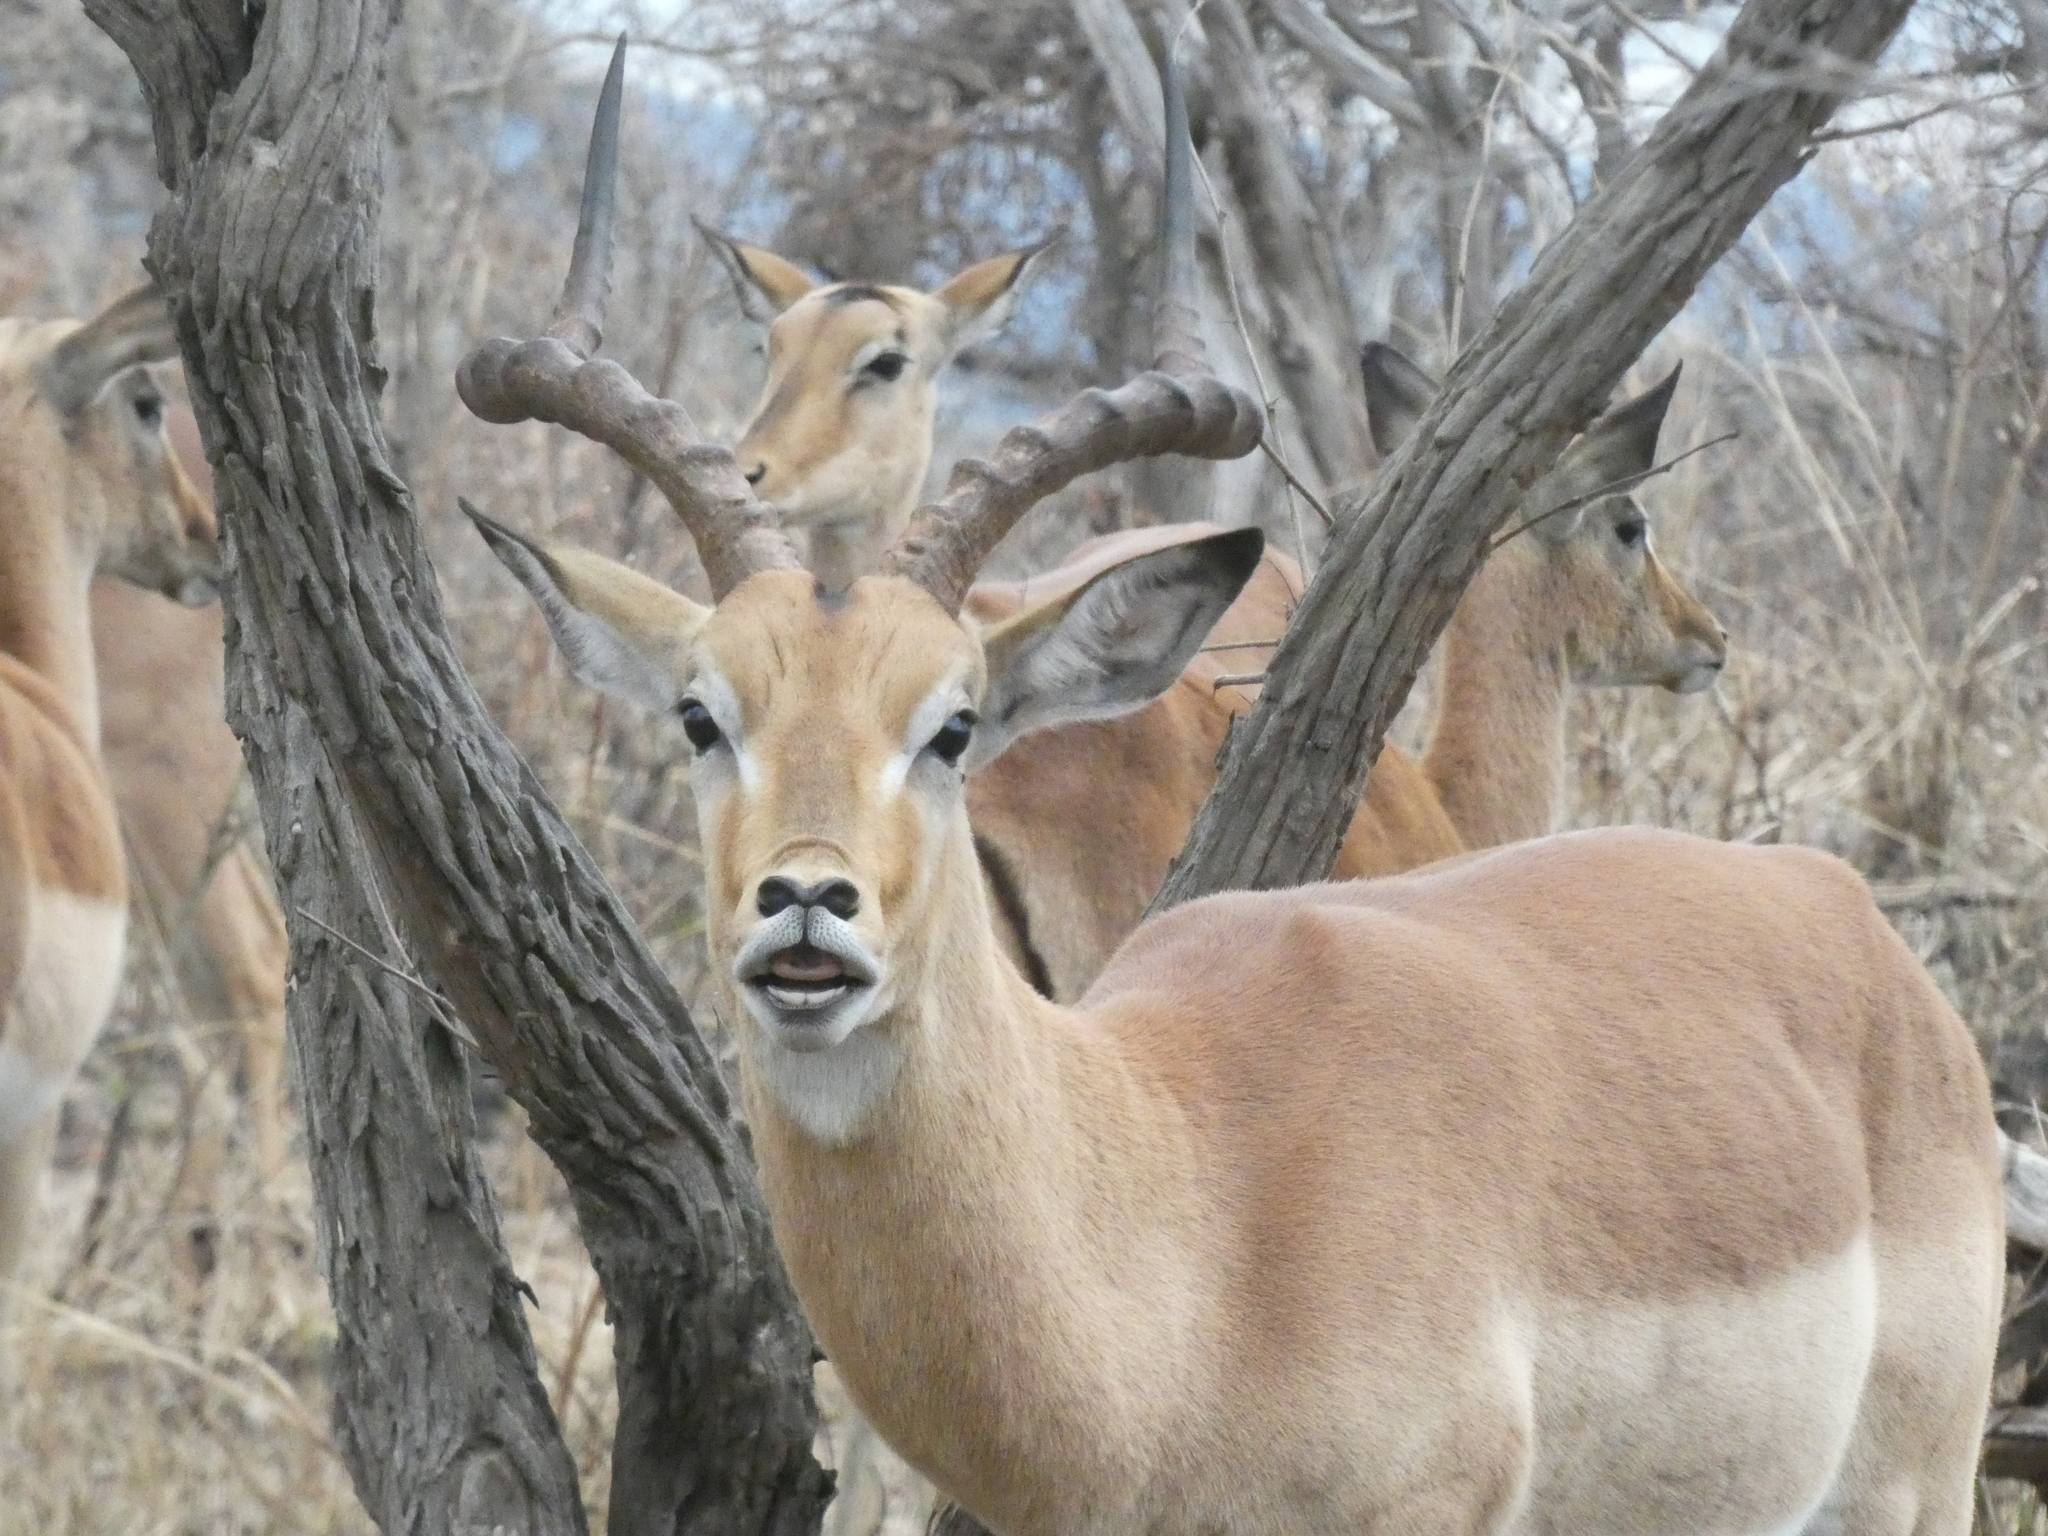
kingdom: Animalia
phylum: Chordata
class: Mammalia
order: Artiodactyla
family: Bovidae
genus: Aepyceros
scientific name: Aepyceros melampus
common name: Impala
